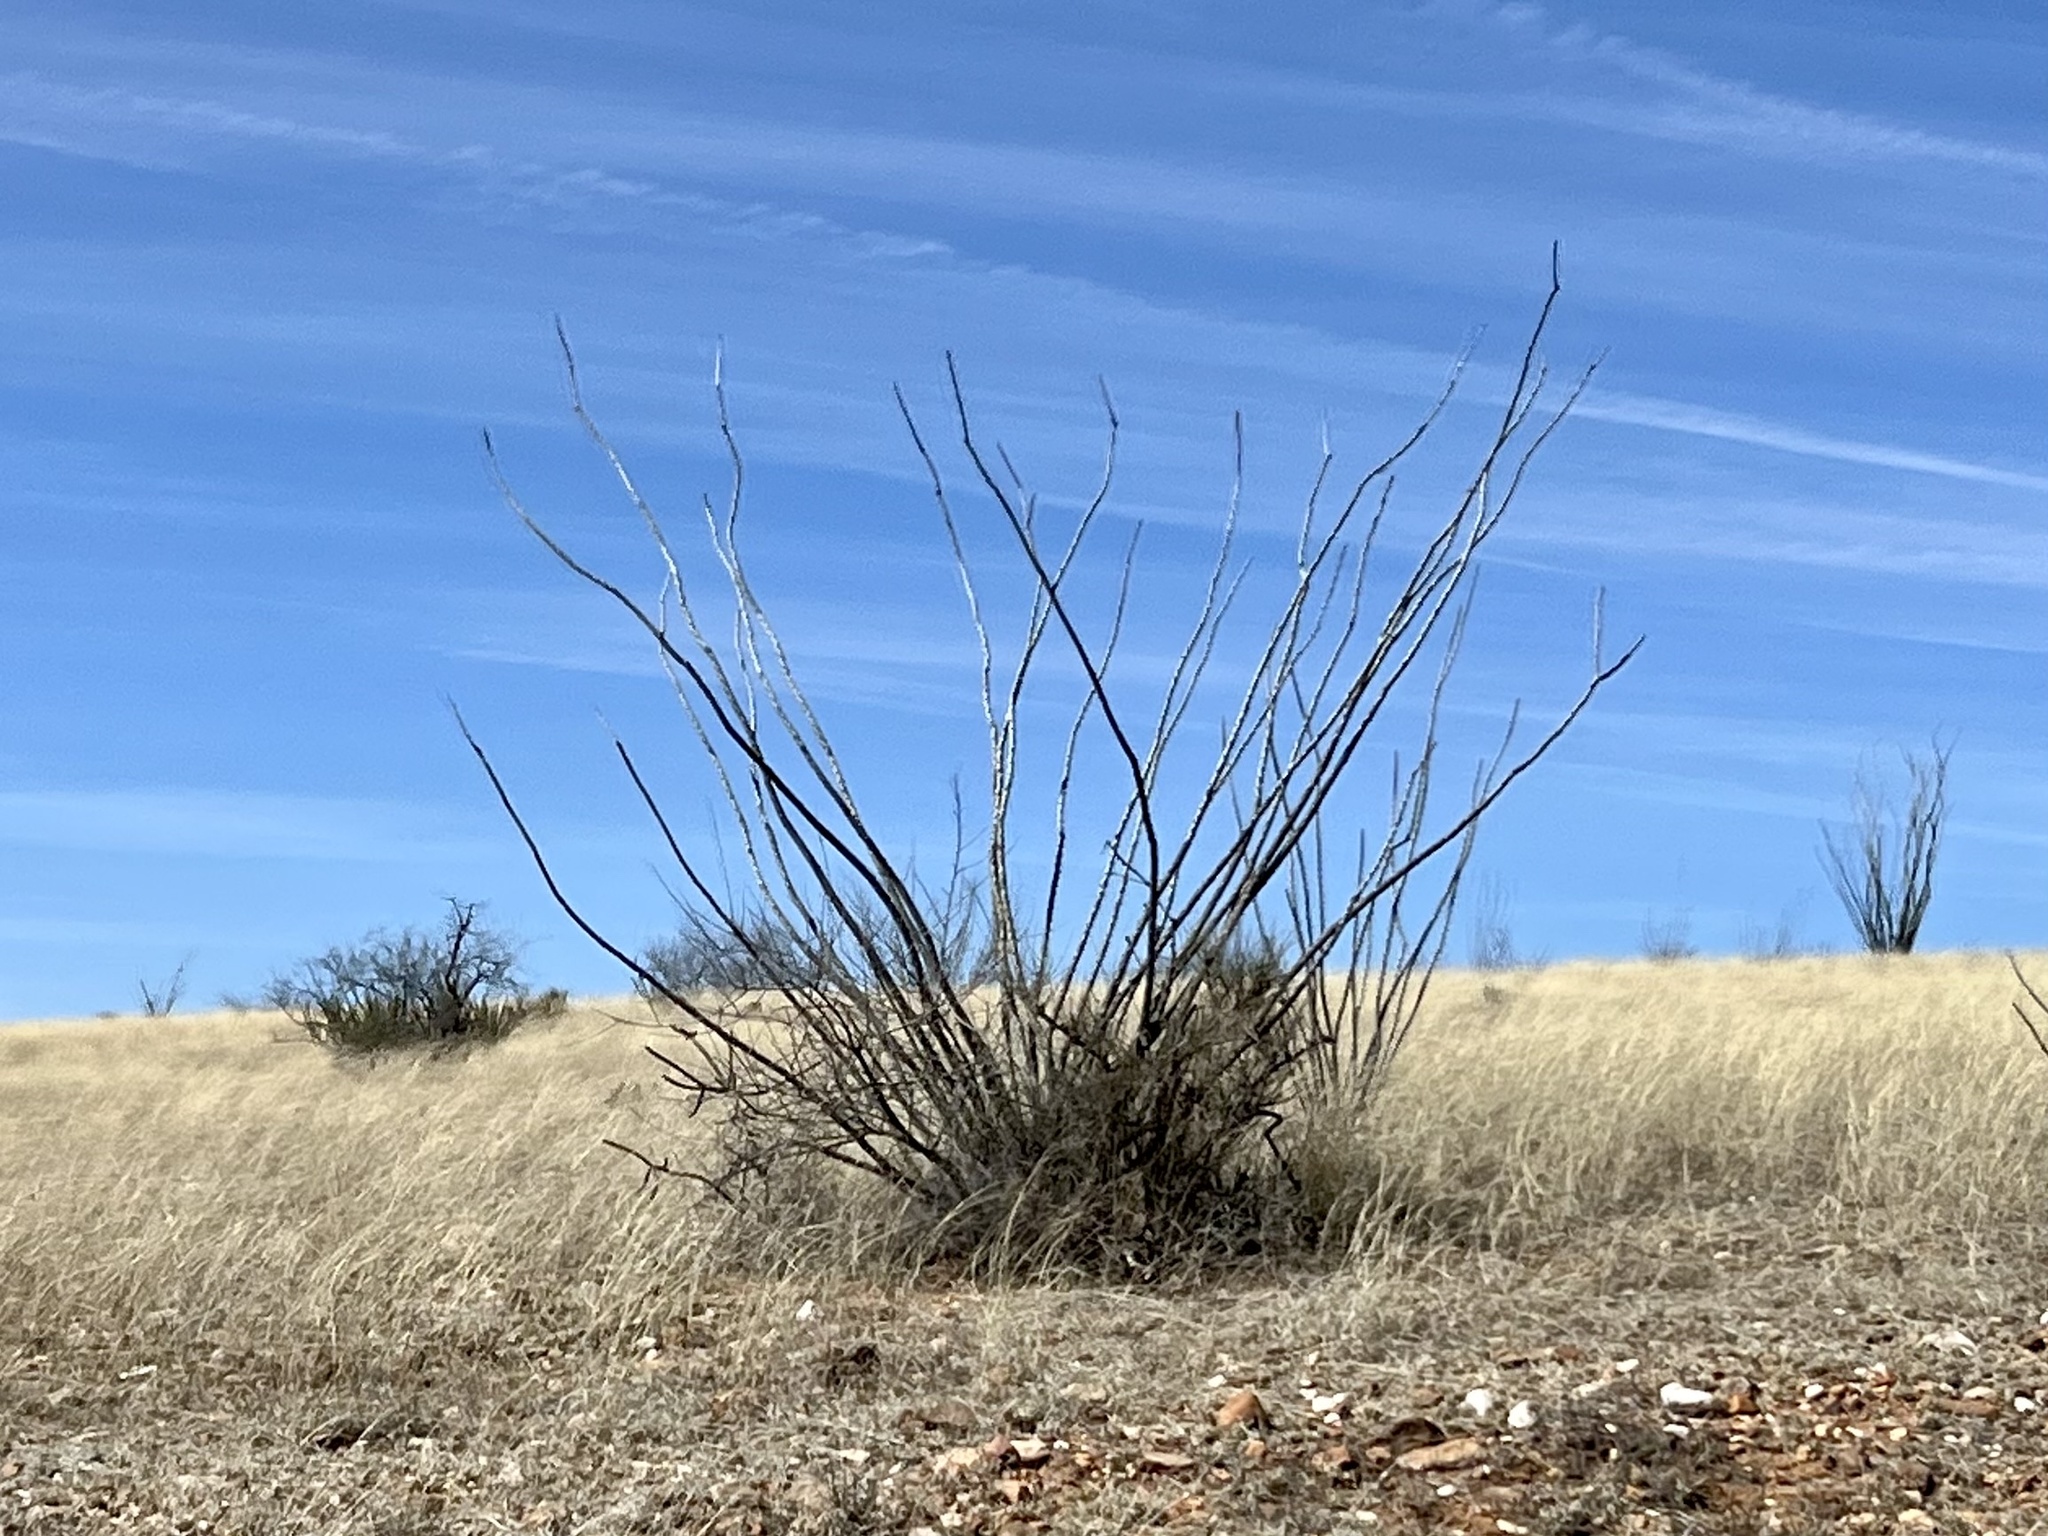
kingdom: Plantae
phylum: Tracheophyta
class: Magnoliopsida
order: Ericales
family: Fouquieriaceae
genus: Fouquieria
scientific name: Fouquieria splendens
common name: Vine-cactus
